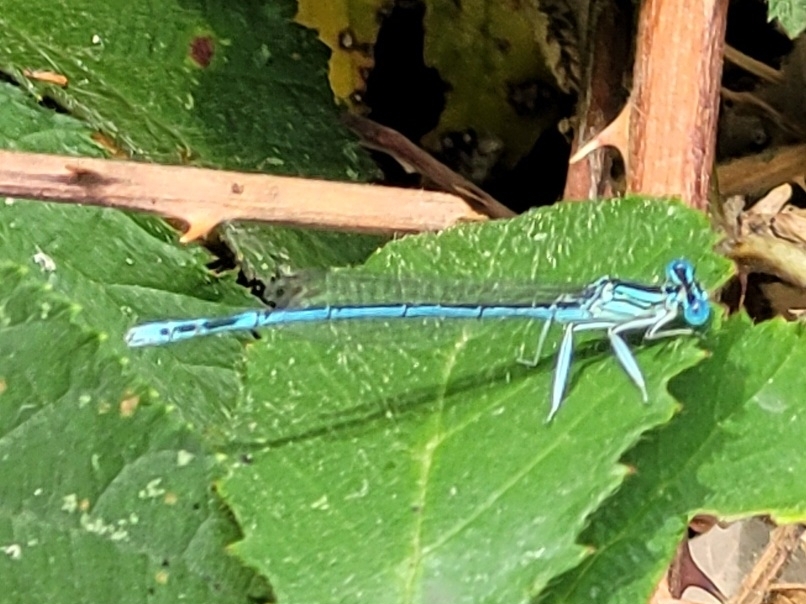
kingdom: Animalia
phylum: Arthropoda
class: Insecta
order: Odonata
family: Platycnemididae
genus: Platycnemis
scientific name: Platycnemis pennipes
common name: White-legged damselfly
